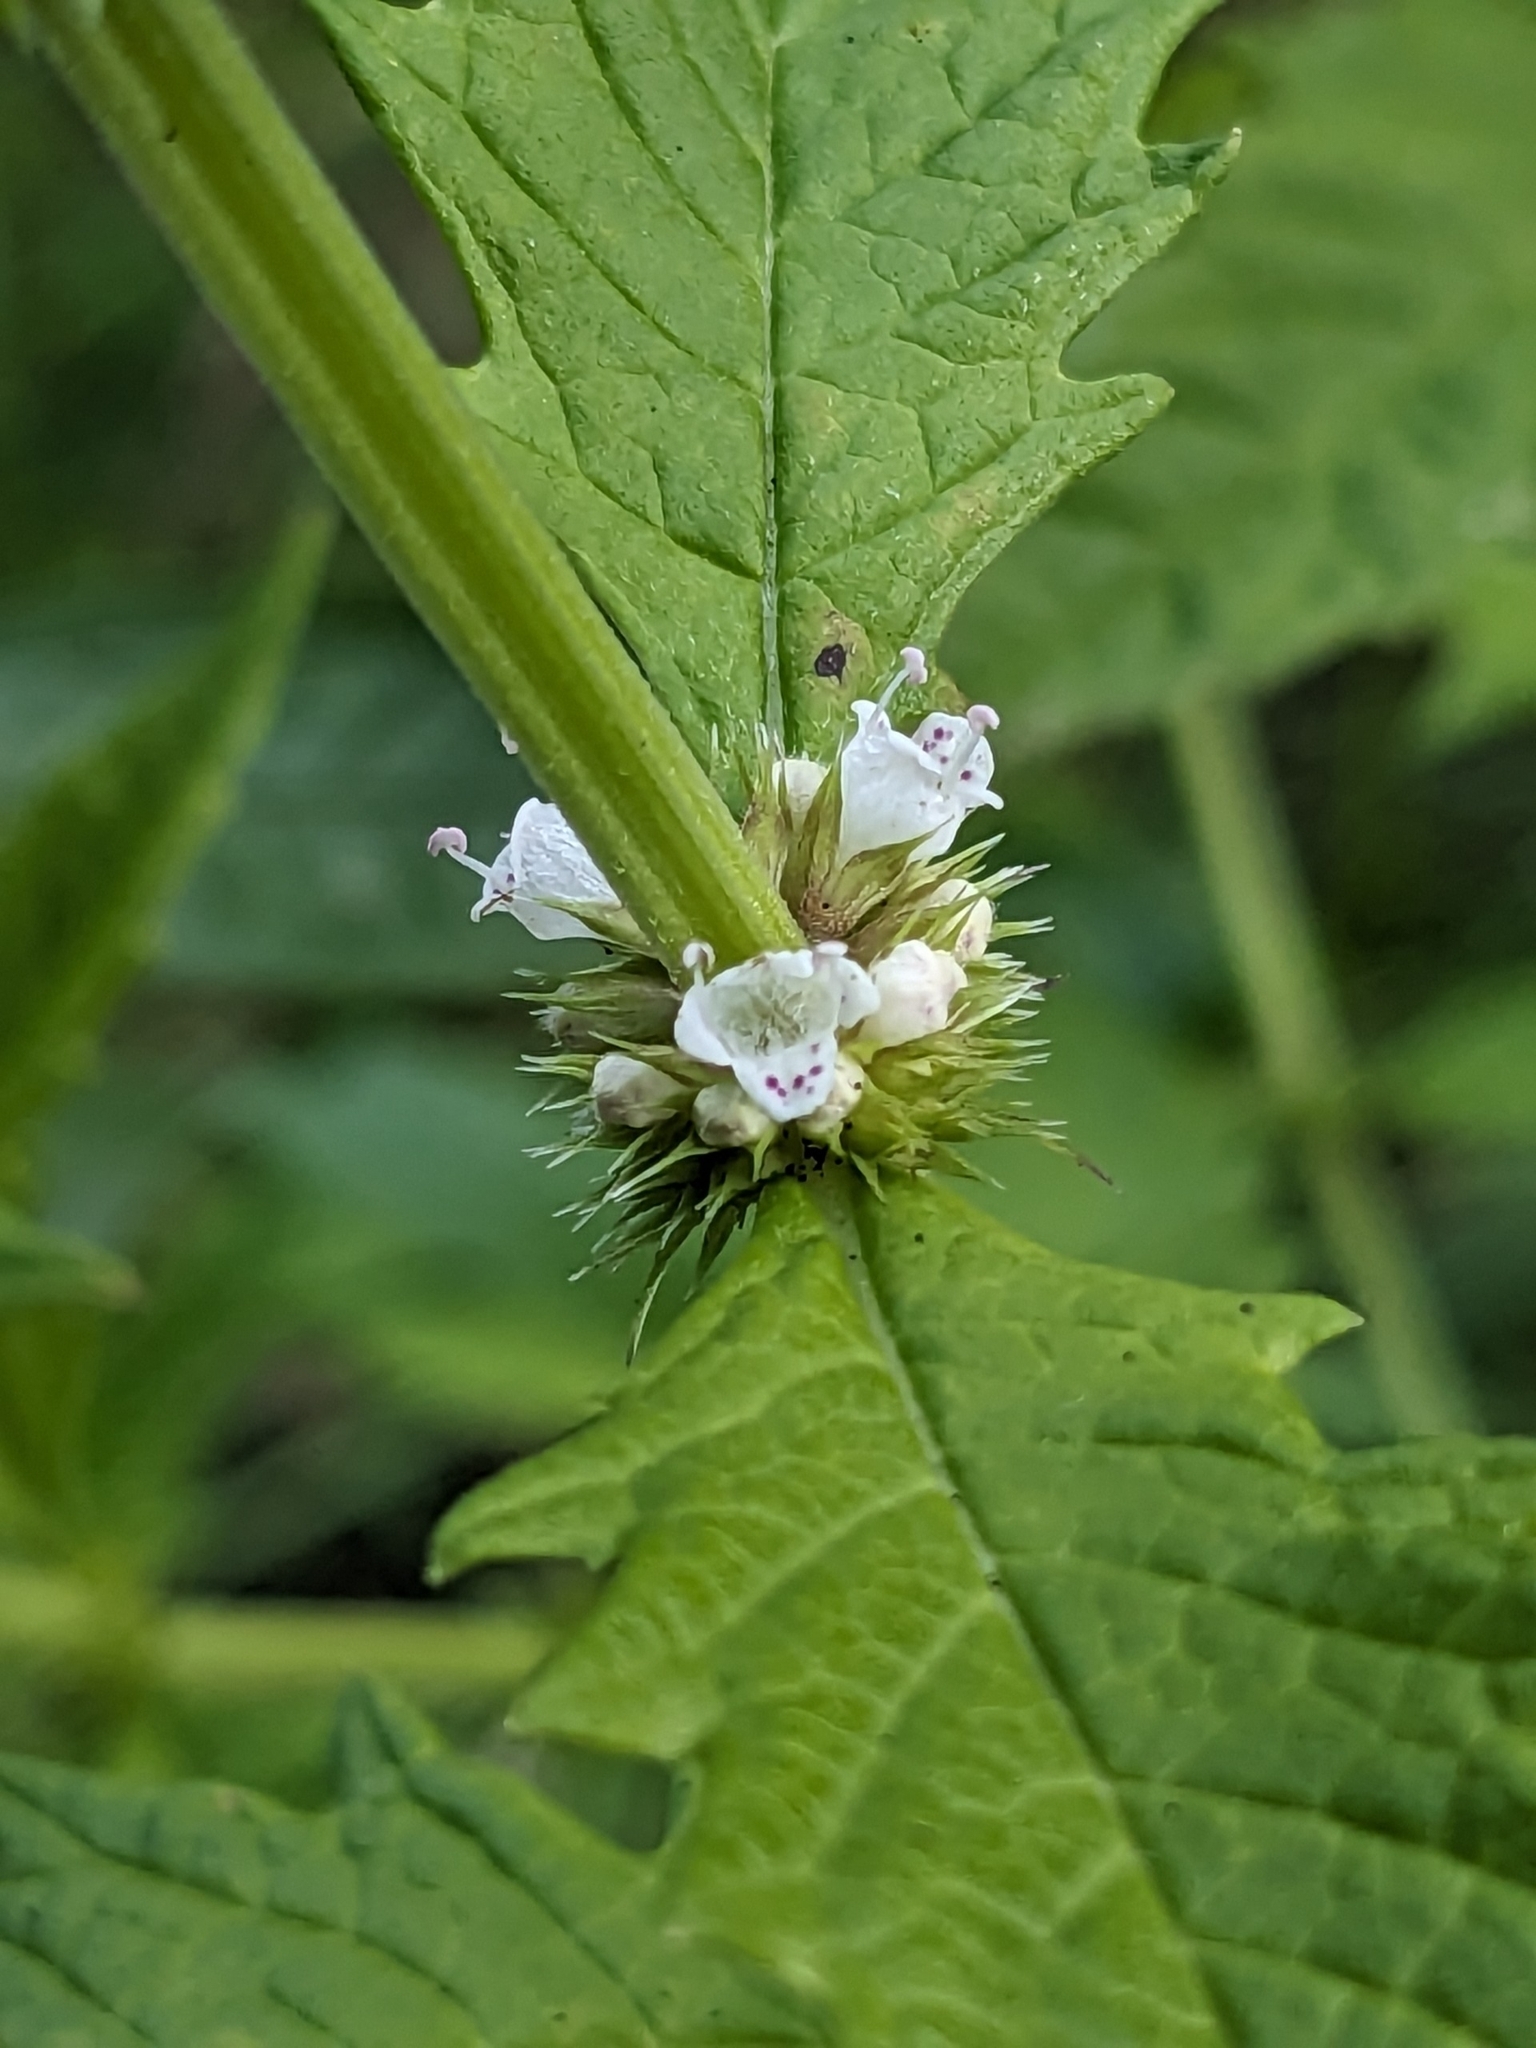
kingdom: Plantae
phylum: Tracheophyta
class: Magnoliopsida
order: Lamiales
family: Lamiaceae
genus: Lycopus
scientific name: Lycopus europaeus
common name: European bugleweed
